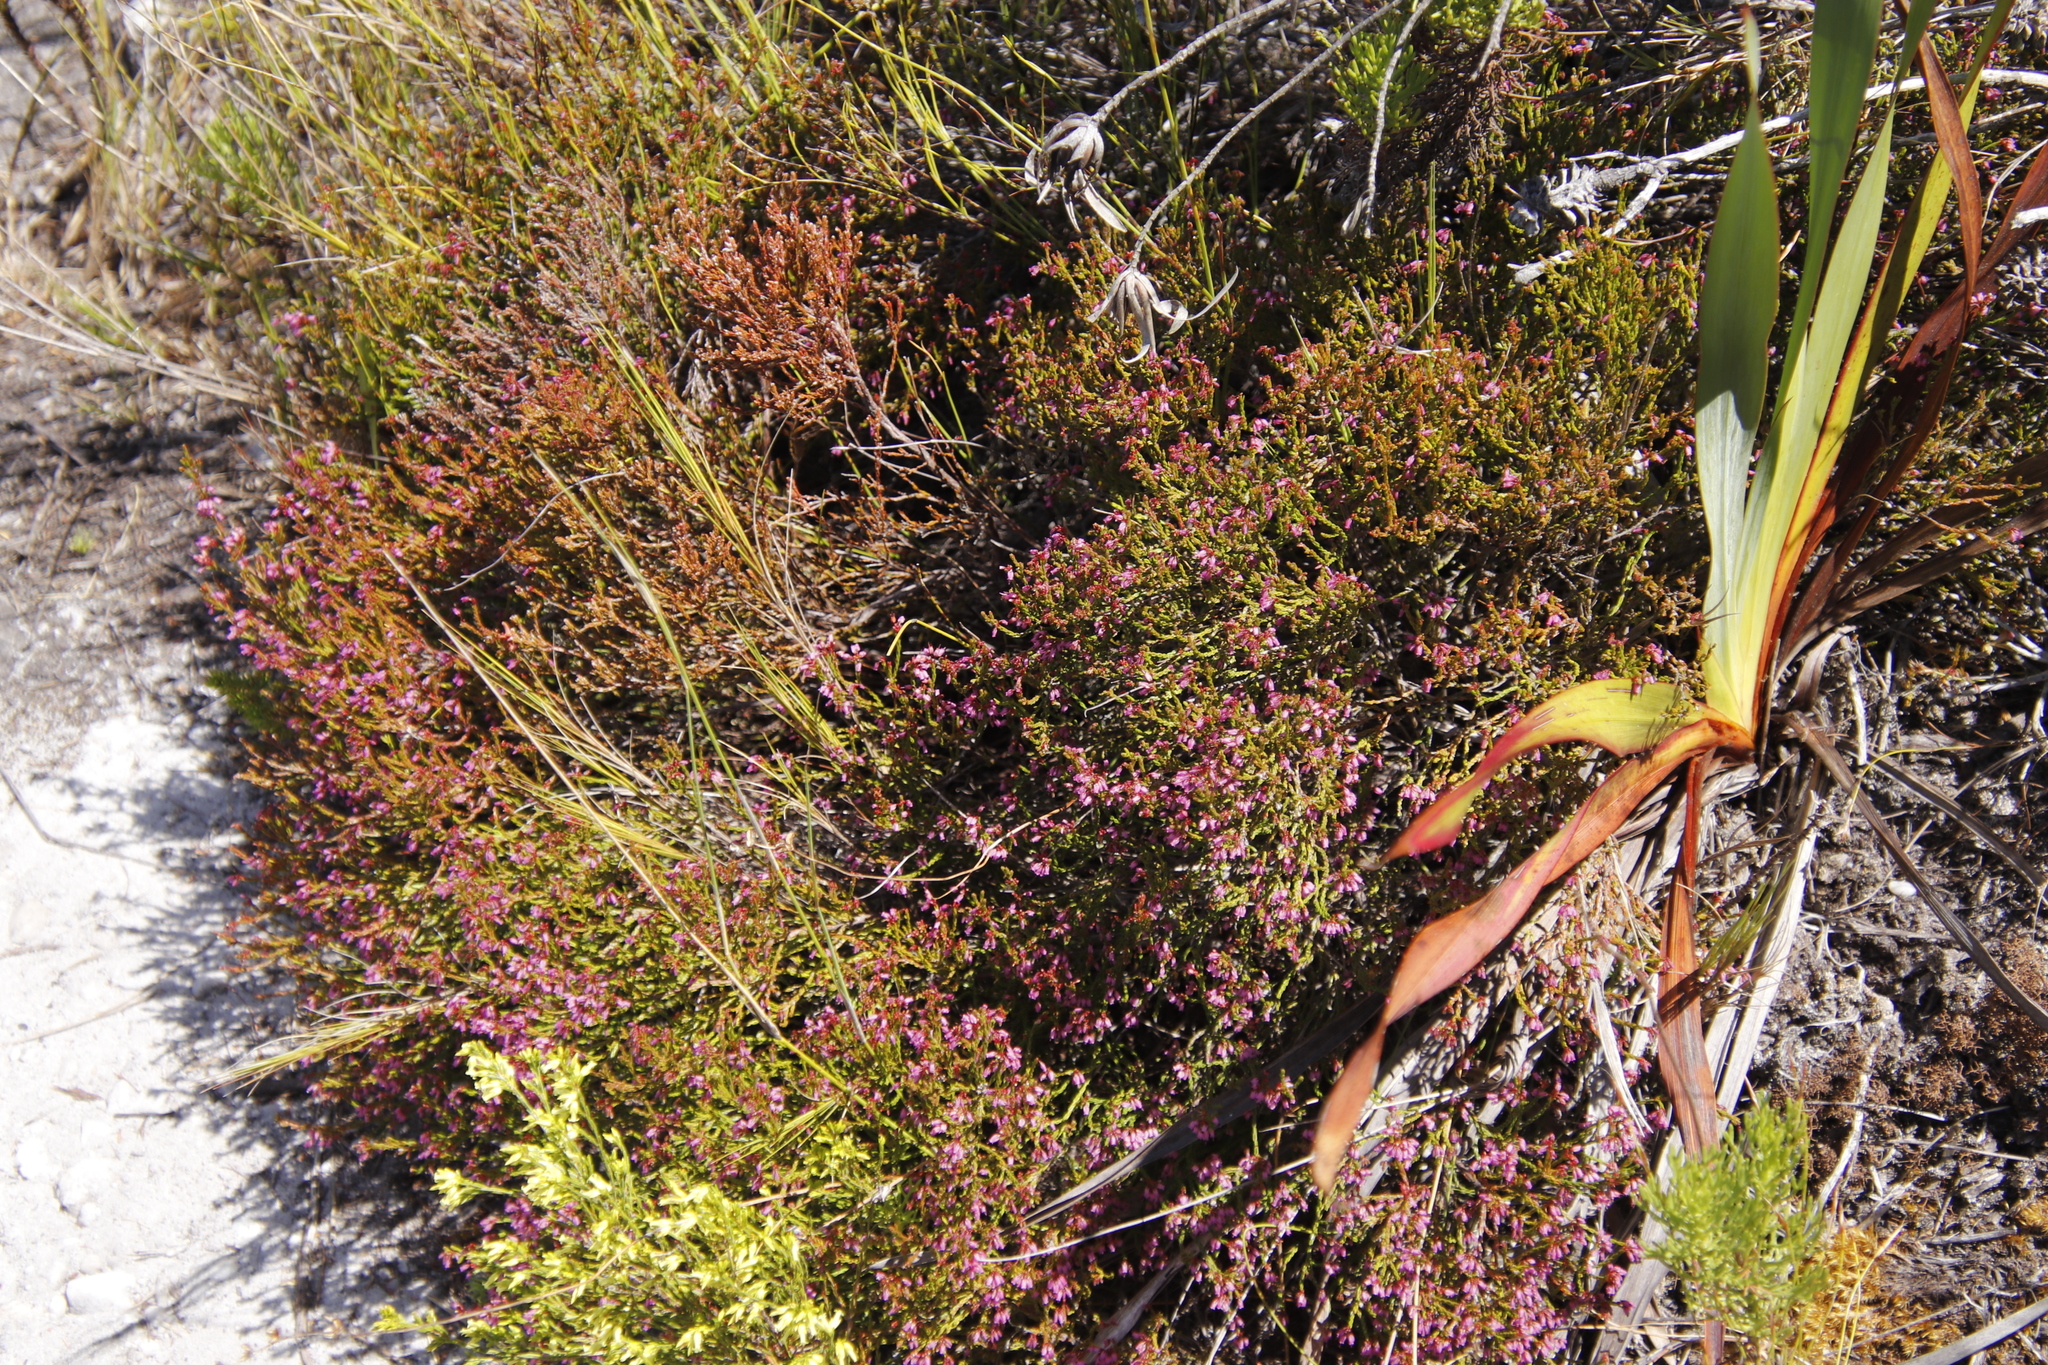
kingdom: Plantae
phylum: Tracheophyta
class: Magnoliopsida
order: Ericales
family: Ericaceae
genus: Erica
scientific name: Erica equisetifolia
